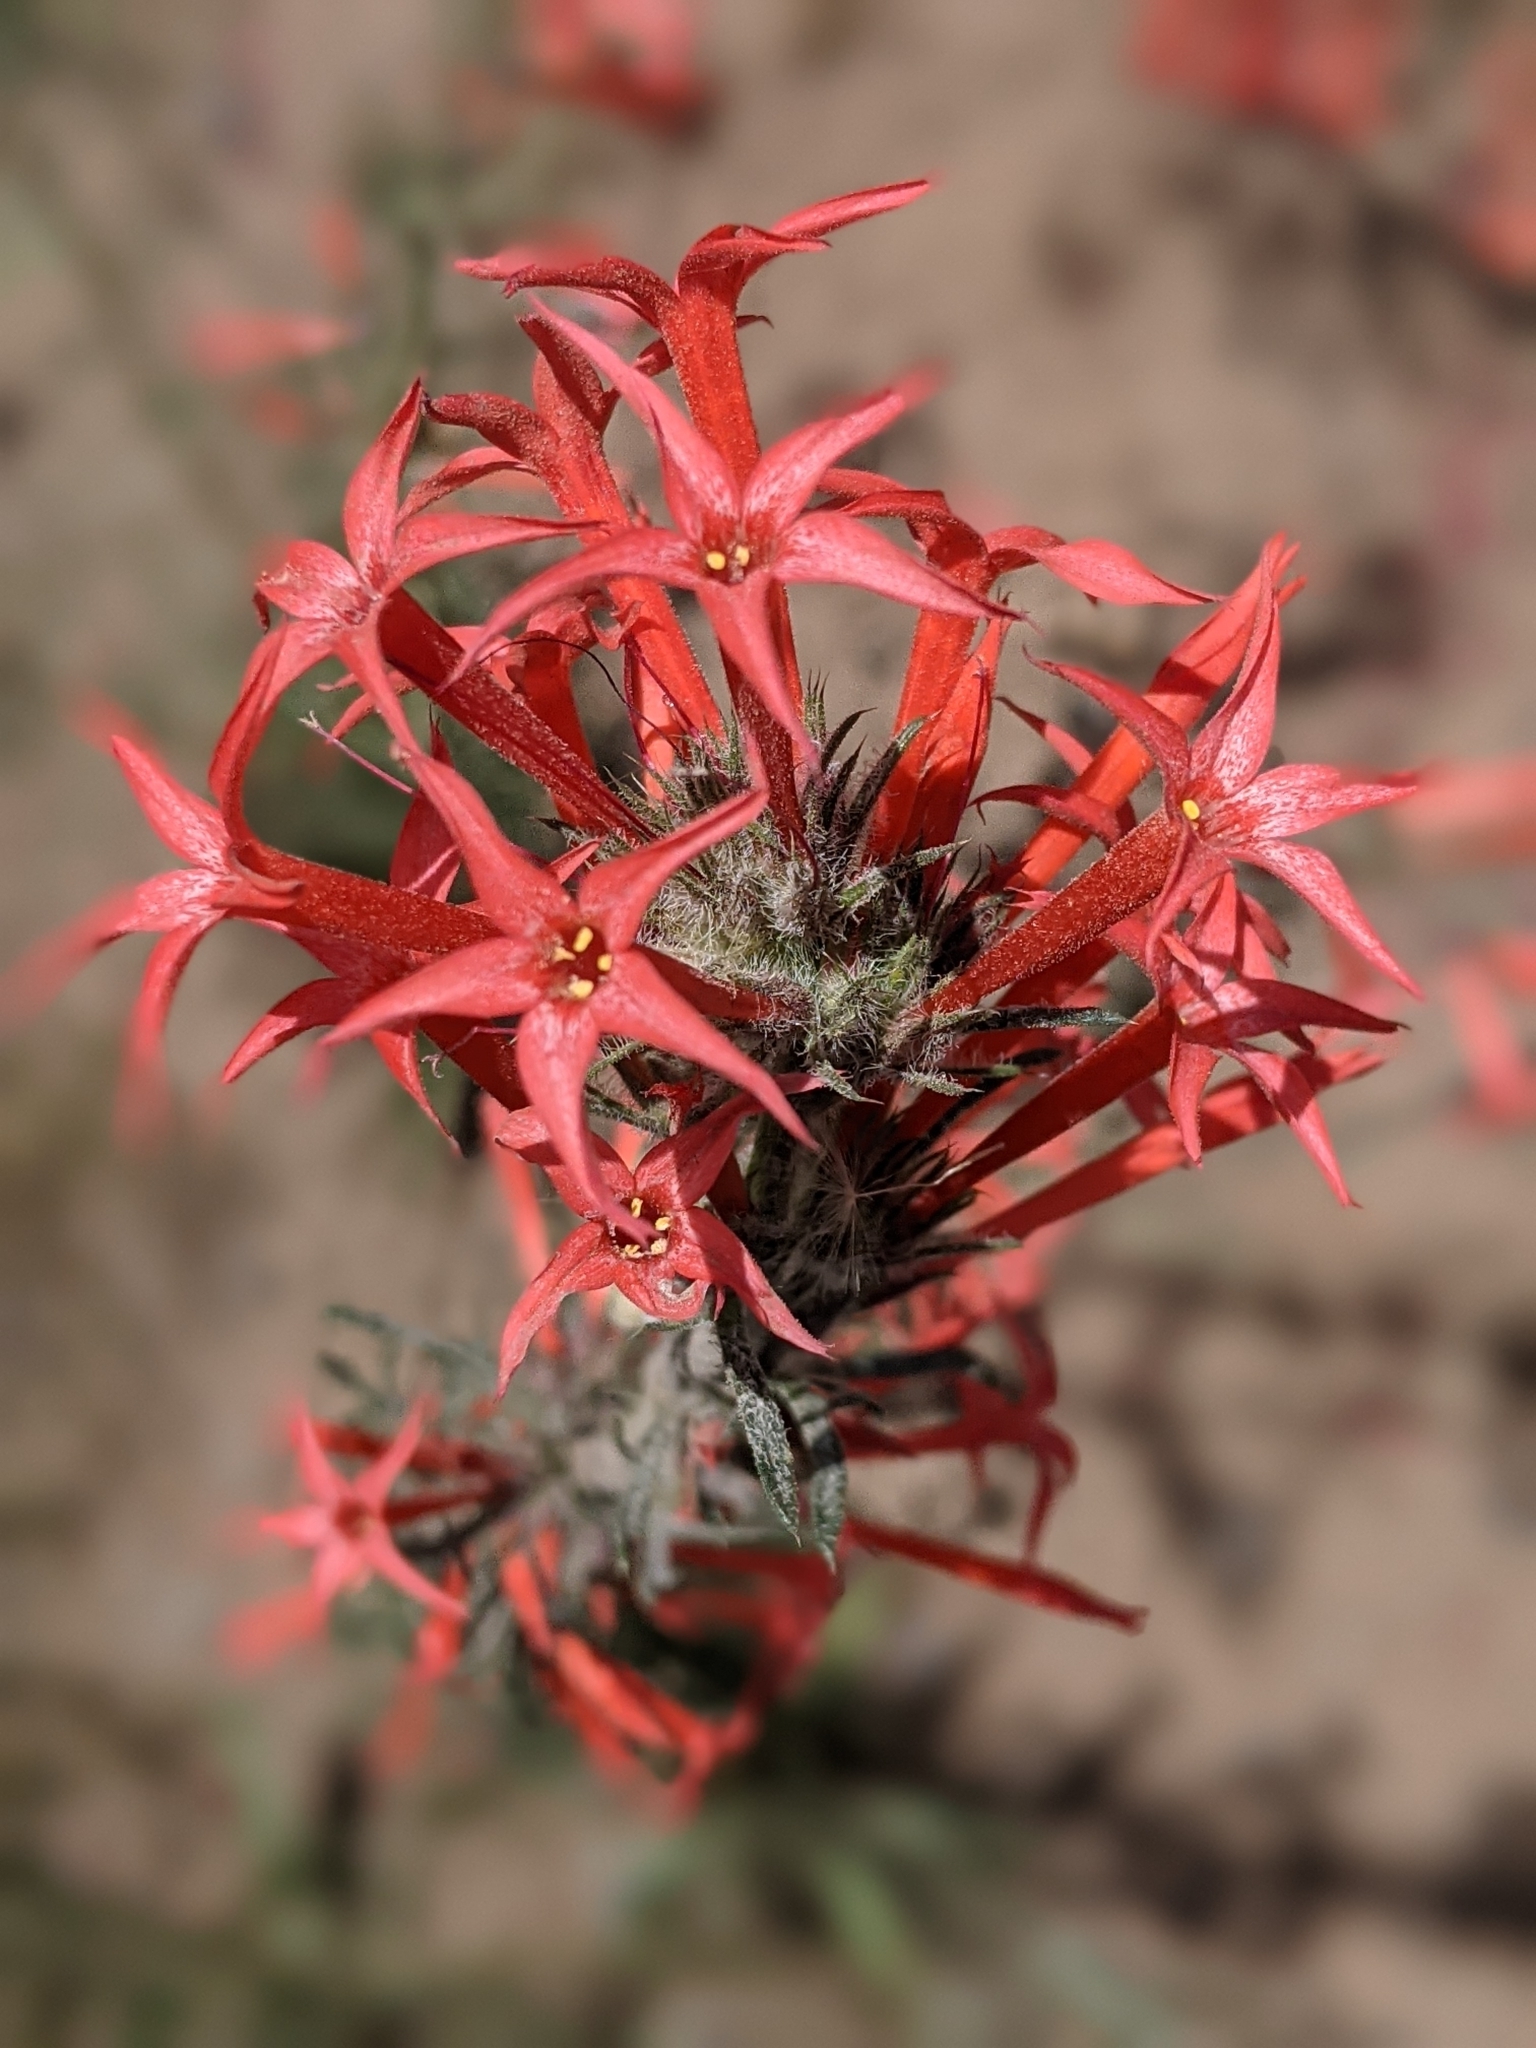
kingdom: Plantae
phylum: Tracheophyta
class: Magnoliopsida
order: Ericales
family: Polemoniaceae
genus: Ipomopsis
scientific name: Ipomopsis aggregata
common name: Scarlet gilia
